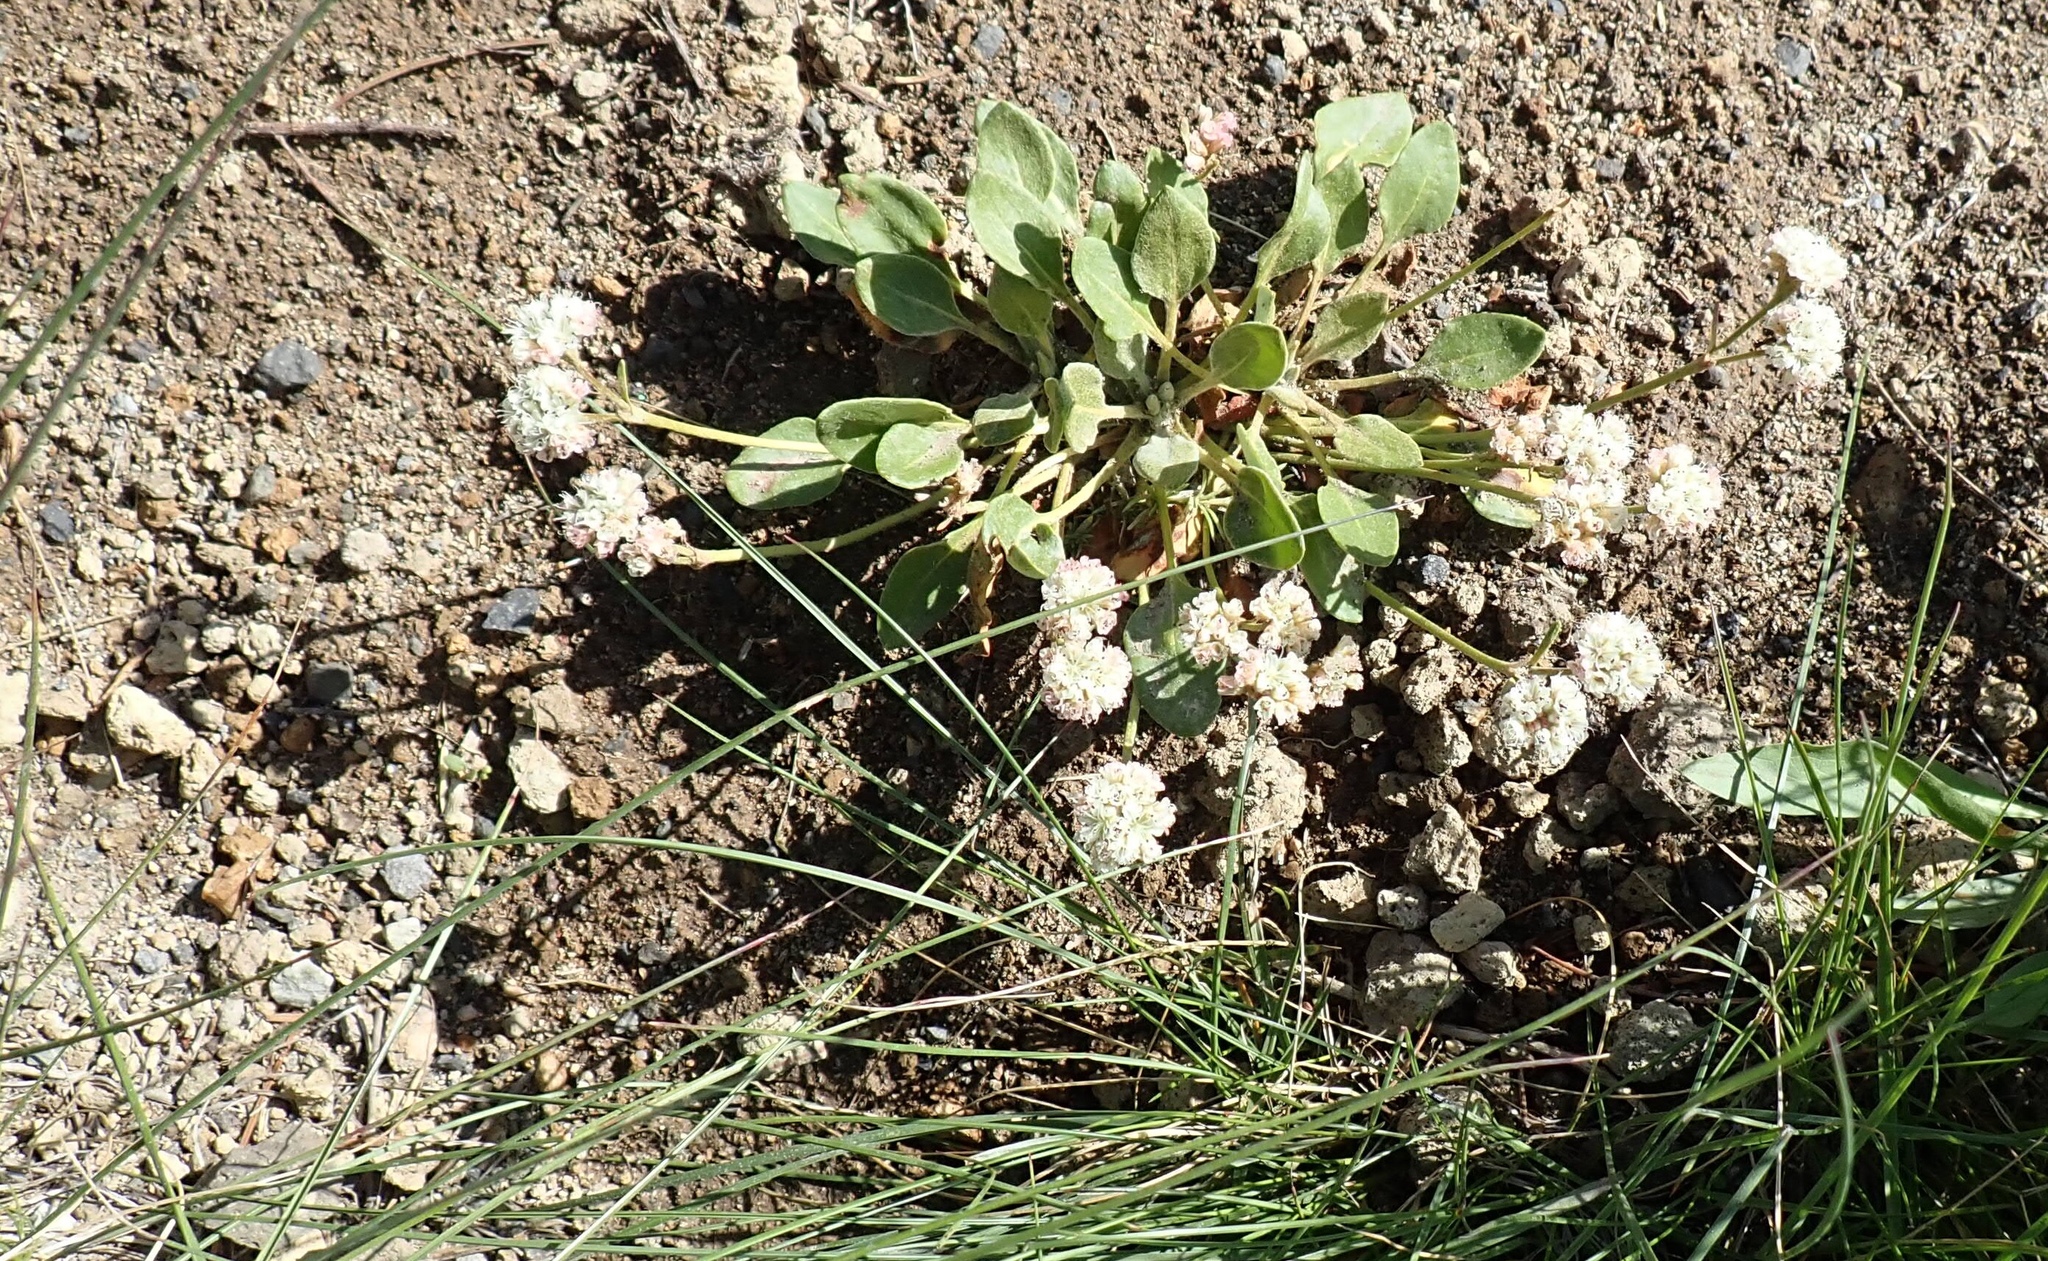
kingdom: Plantae
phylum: Tracheophyta
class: Magnoliopsida
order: Caryophyllales
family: Polygonaceae
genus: Eriogonum
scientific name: Eriogonum pyrolifolium
